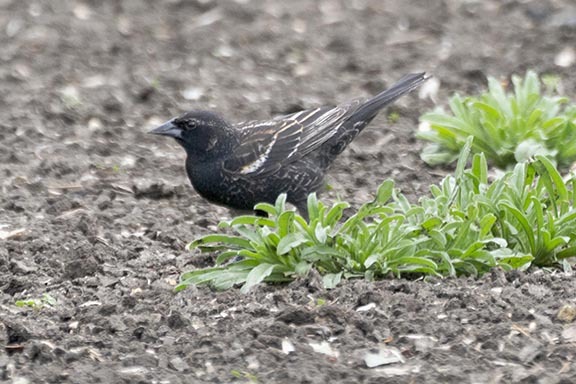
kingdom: Animalia
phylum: Chordata
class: Aves
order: Passeriformes
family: Icteridae
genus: Agelaius
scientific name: Agelaius phoeniceus
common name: Red-winged blackbird
